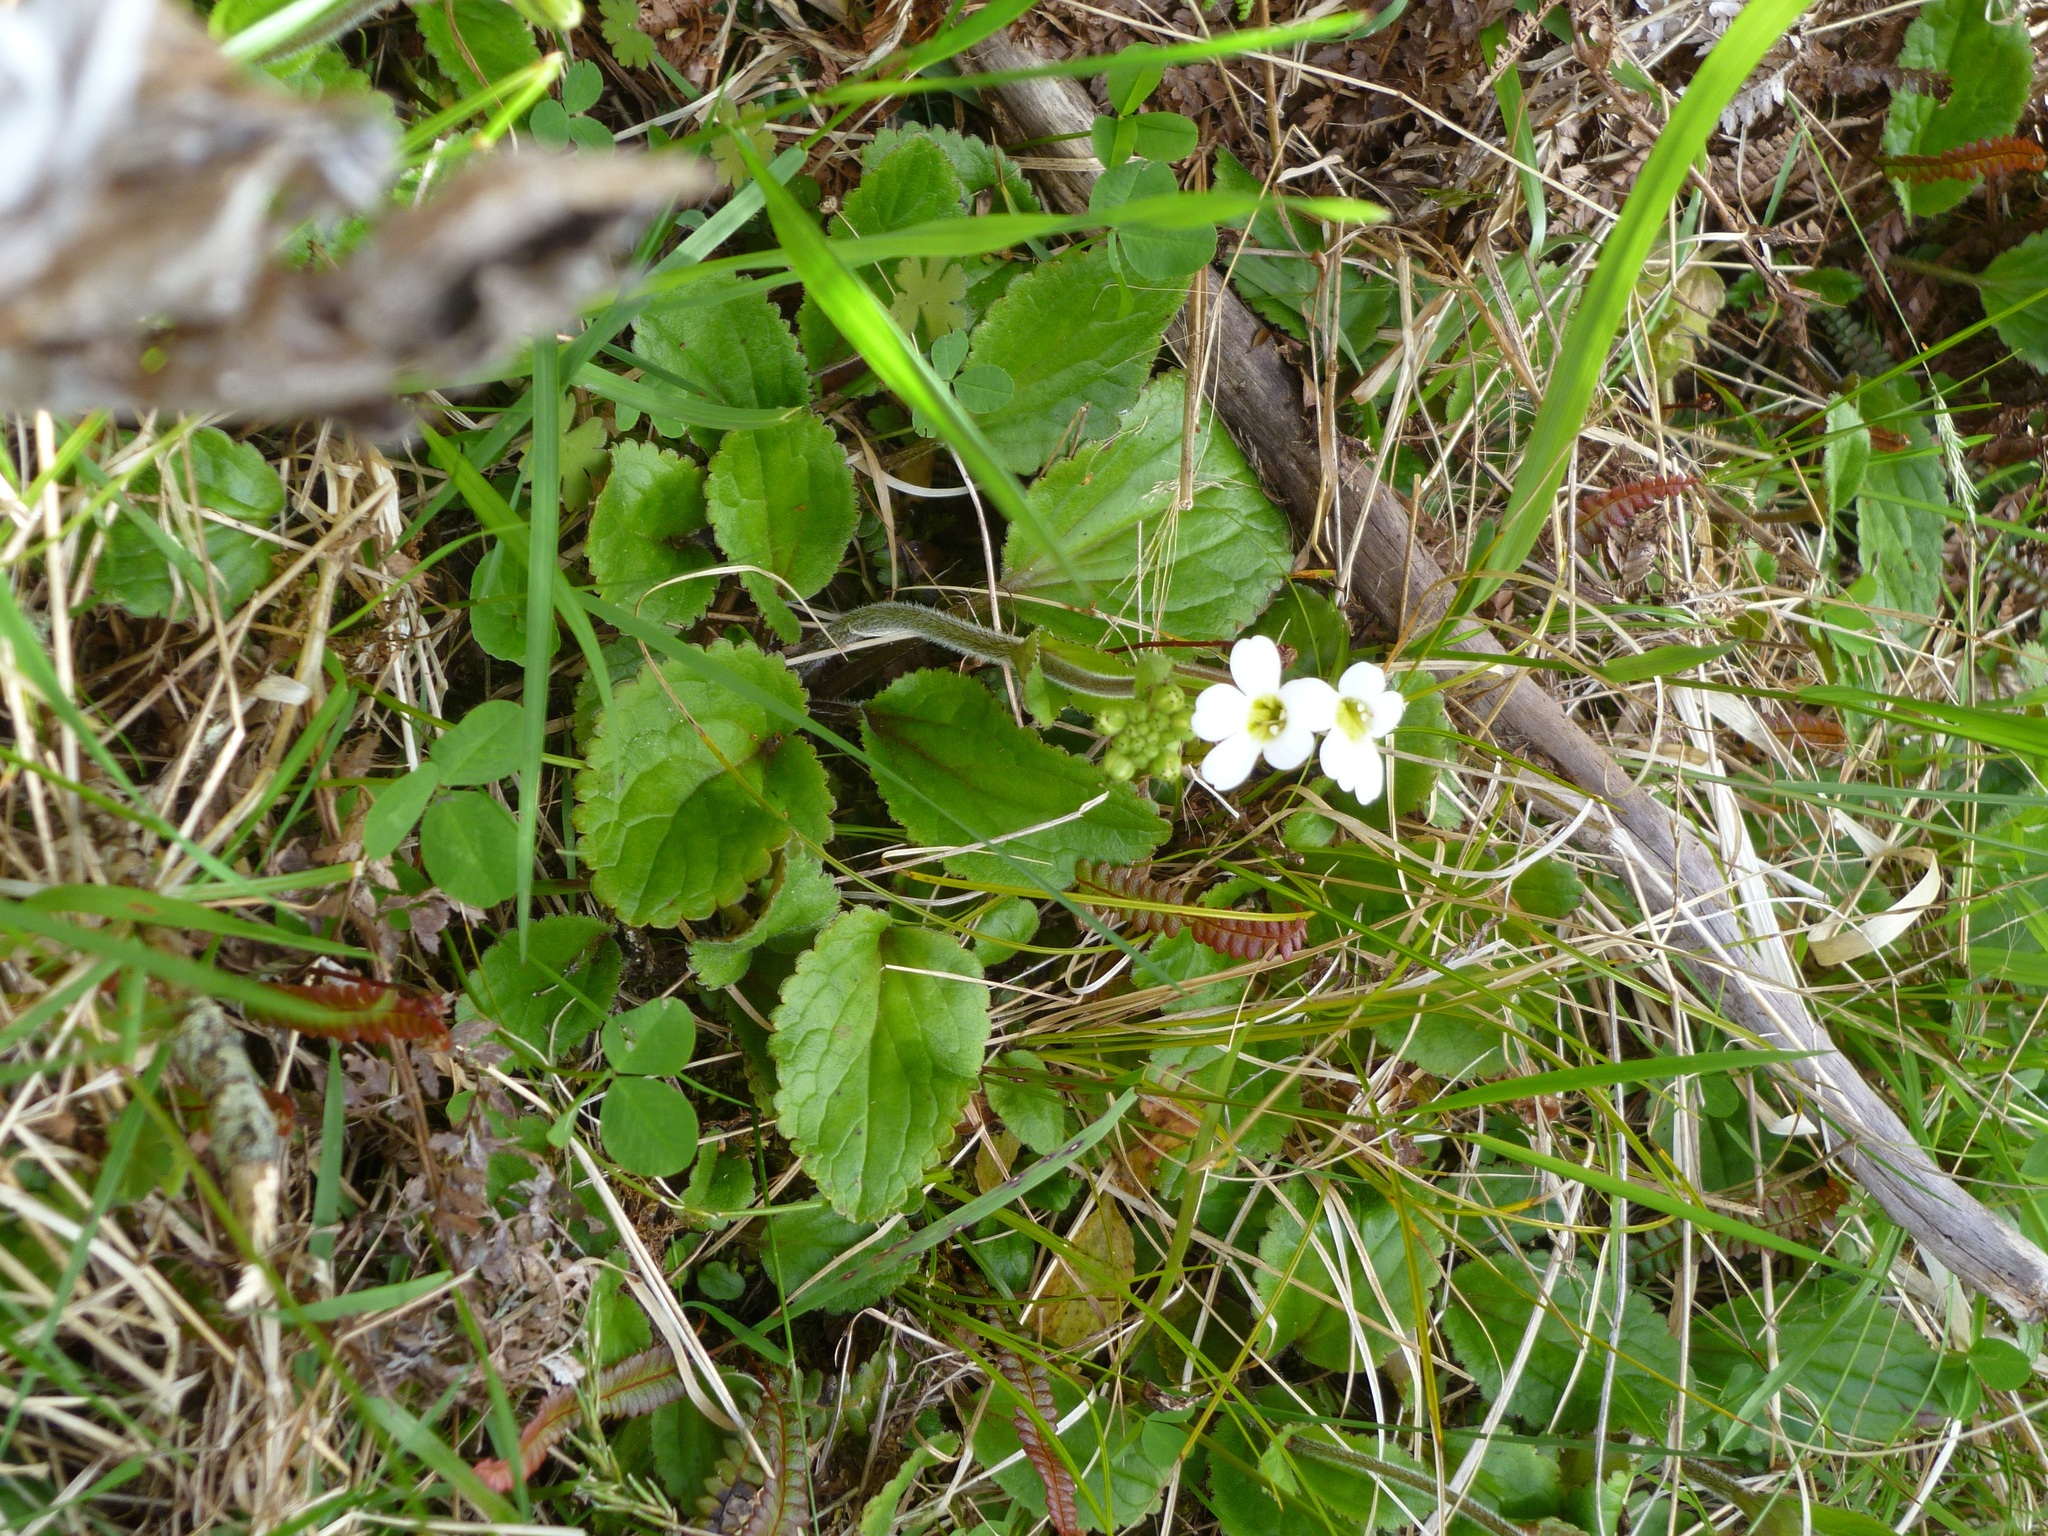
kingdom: Plantae
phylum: Tracheophyta
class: Magnoliopsida
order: Lamiales
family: Plantaginaceae
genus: Ourisia
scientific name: Ourisia macrophylla
